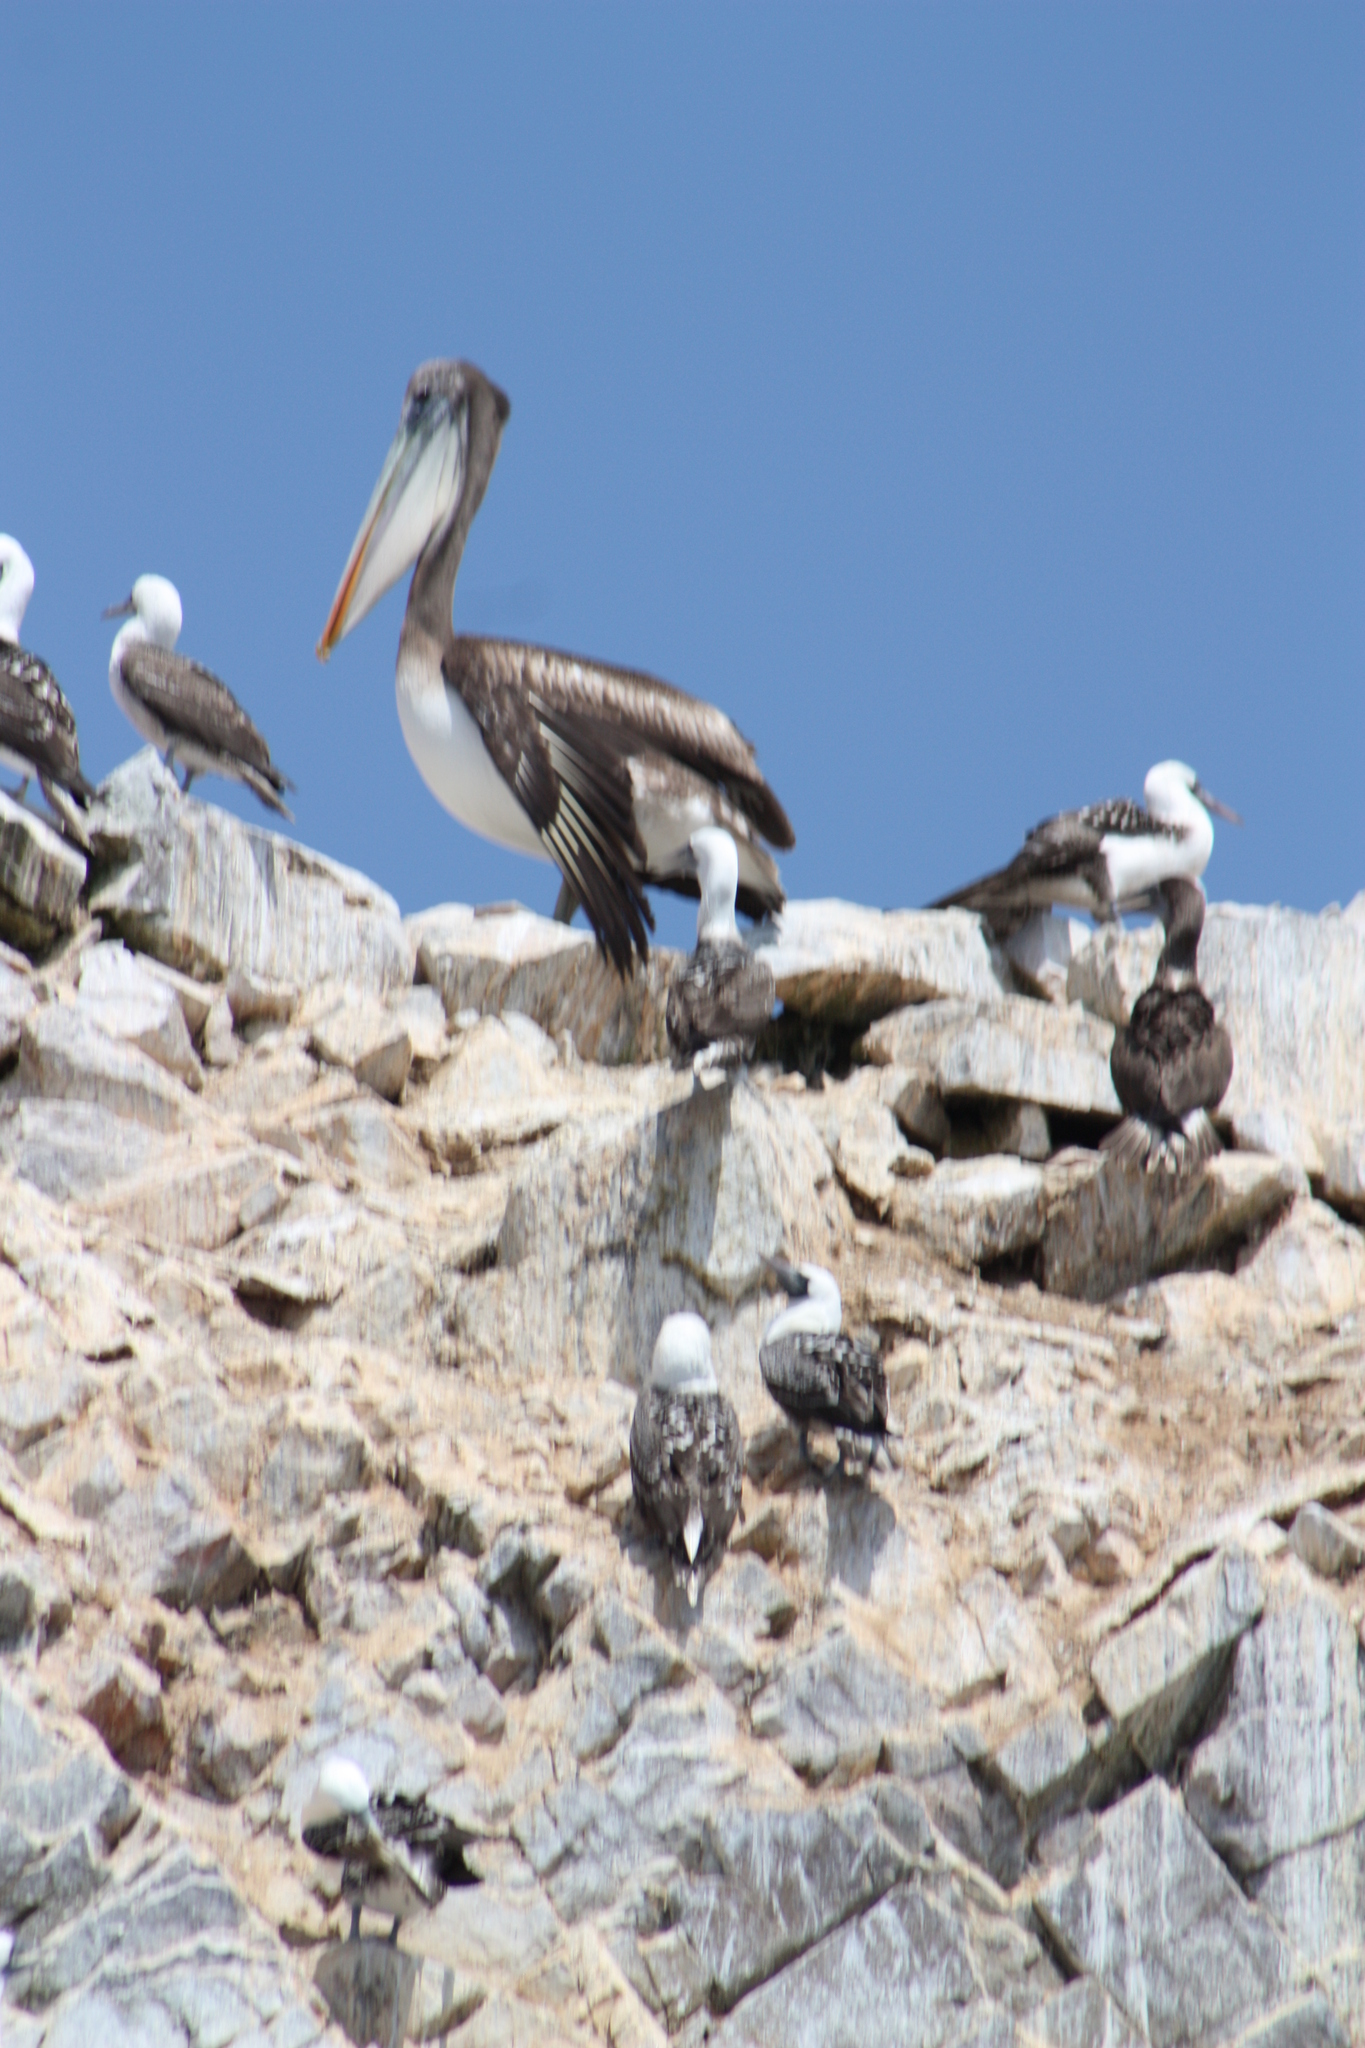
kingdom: Animalia
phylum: Chordata
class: Aves
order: Pelecaniformes
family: Pelecanidae
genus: Pelecanus
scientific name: Pelecanus thagus
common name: Peruvian pelican
